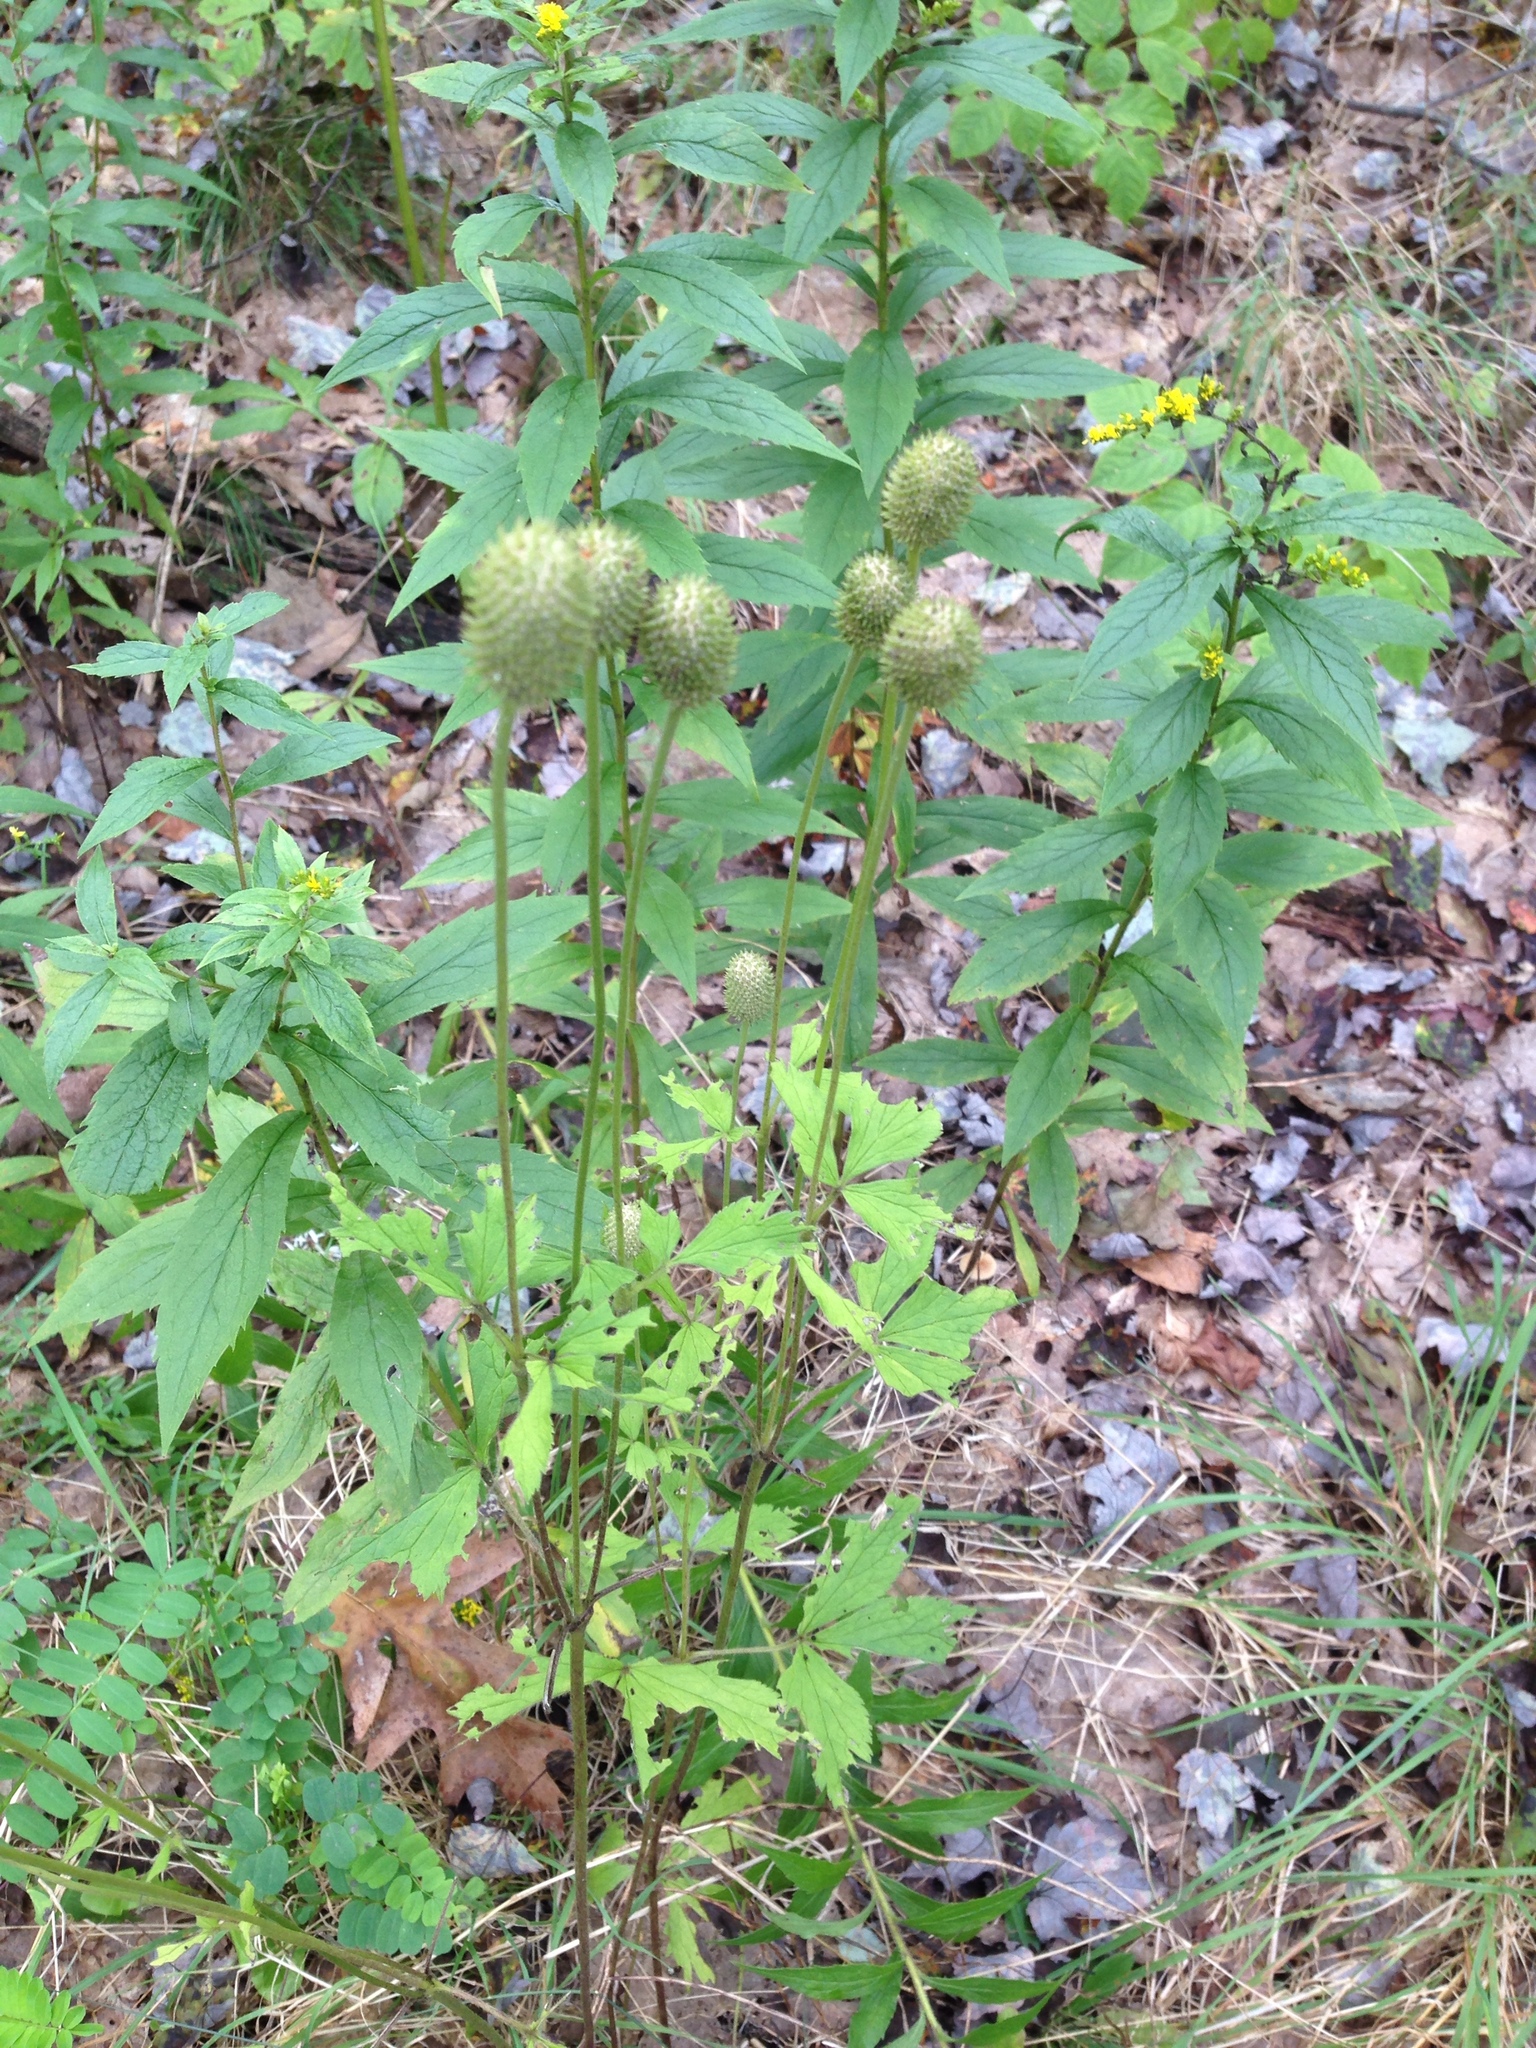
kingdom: Plantae
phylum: Tracheophyta
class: Magnoliopsida
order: Ranunculales
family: Ranunculaceae
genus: Anemone
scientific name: Anemone virginiana
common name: Tall anemone
